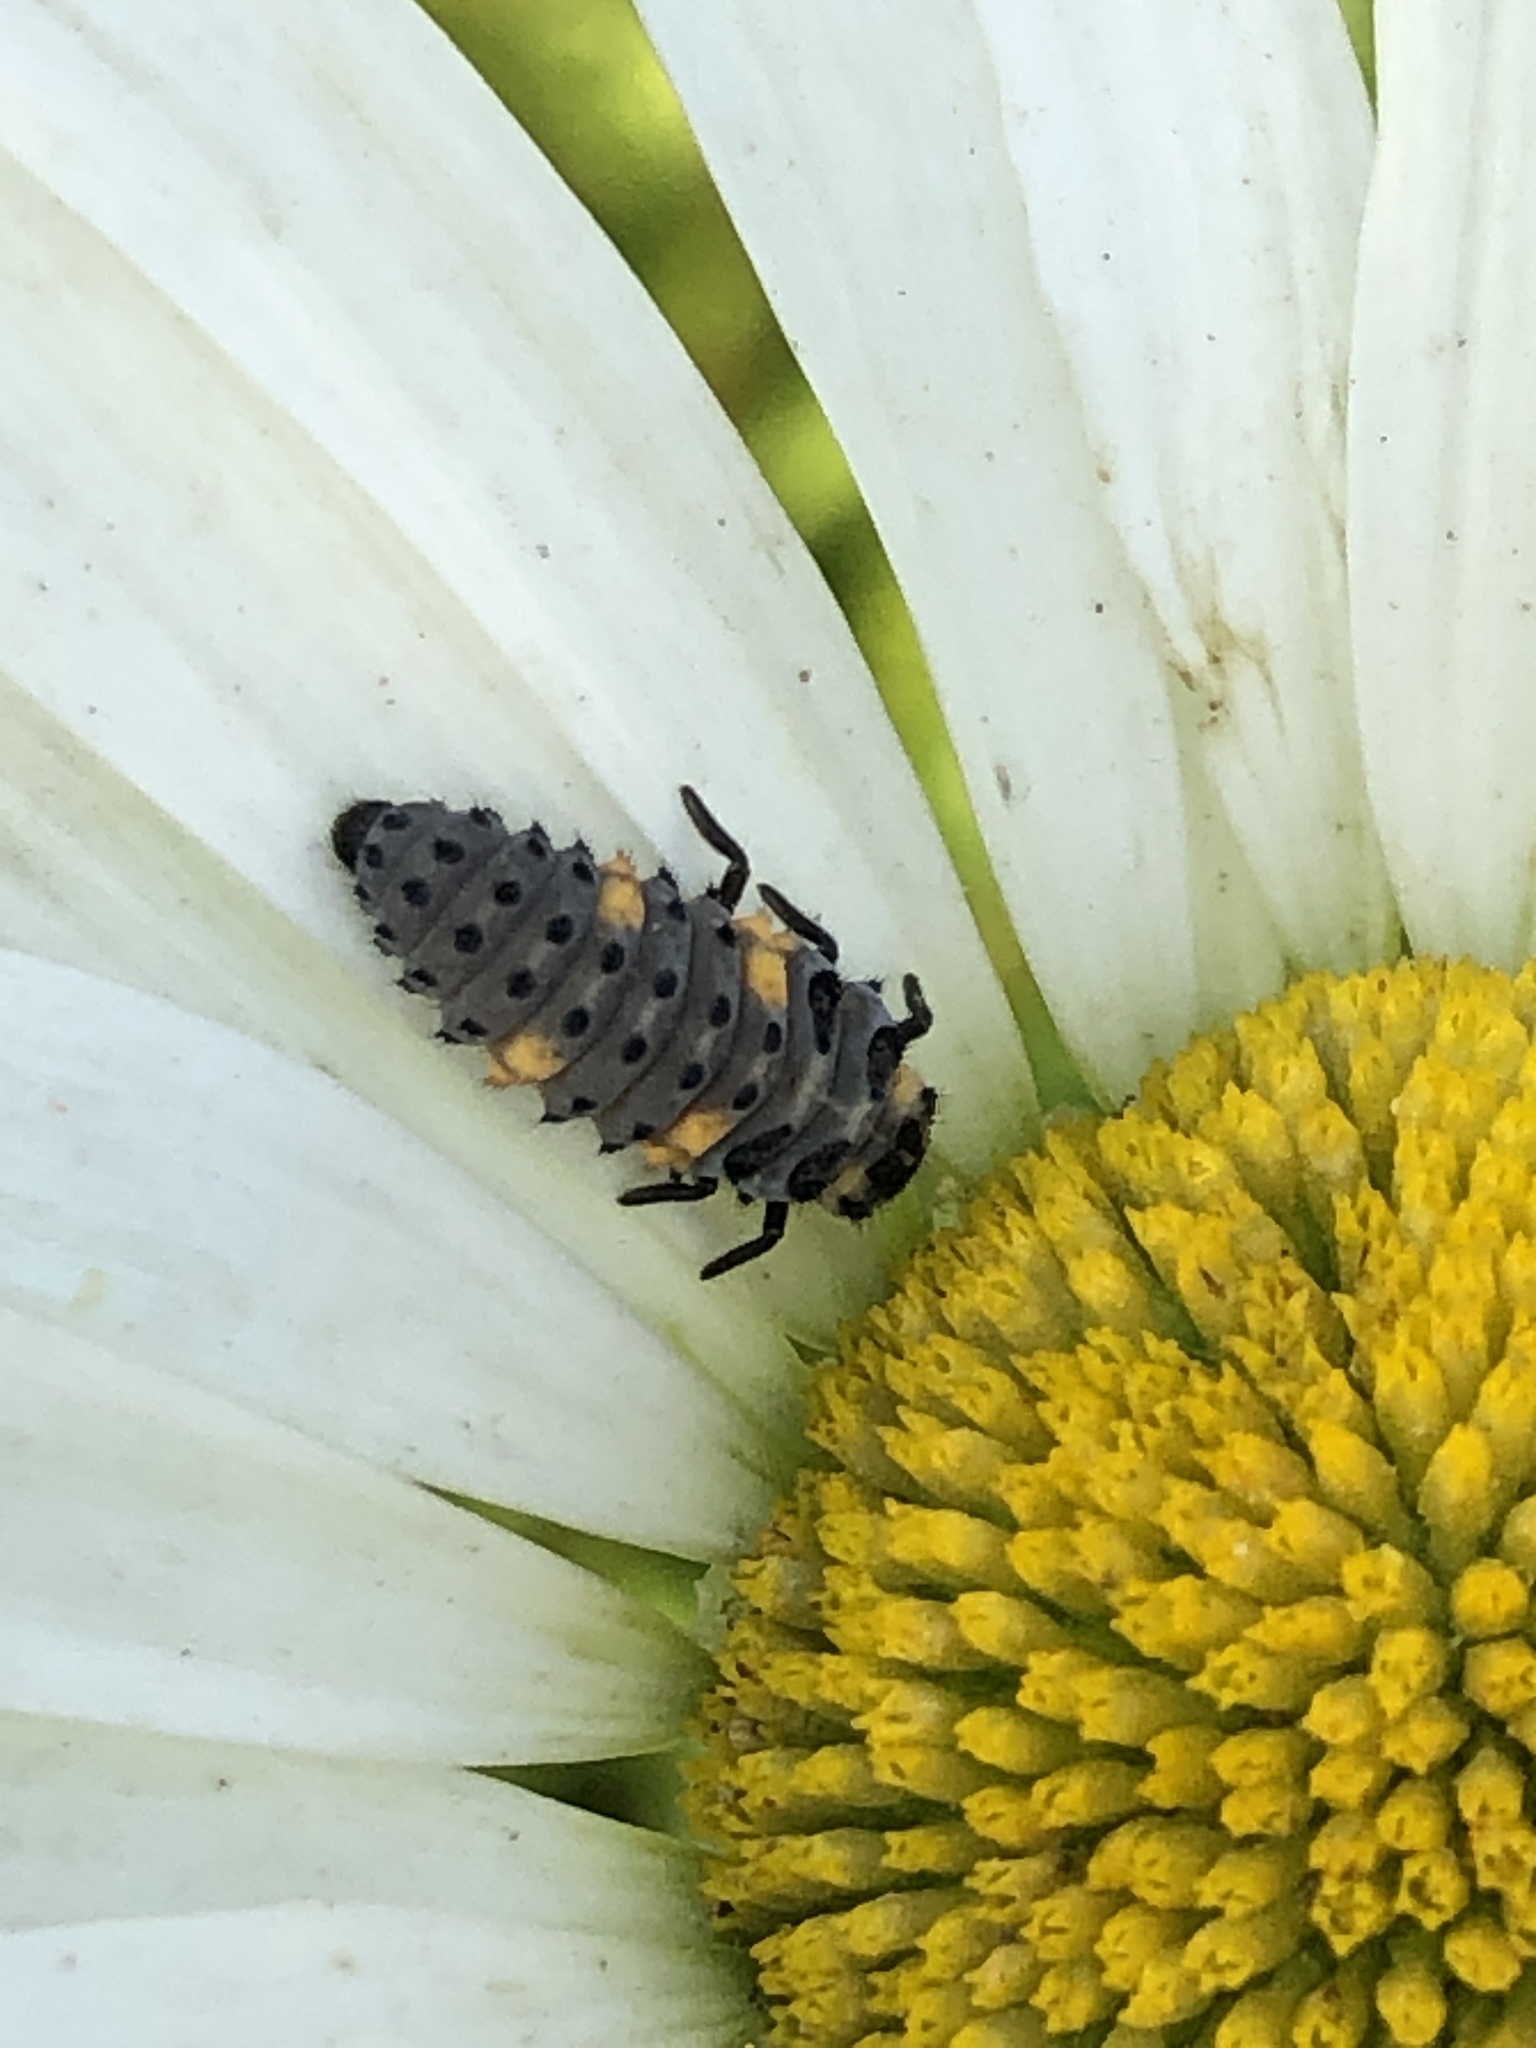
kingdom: Animalia
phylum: Arthropoda
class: Insecta
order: Coleoptera
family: Coccinellidae
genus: Coccinella
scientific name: Coccinella septempunctata
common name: Sevenspotted lady beetle
